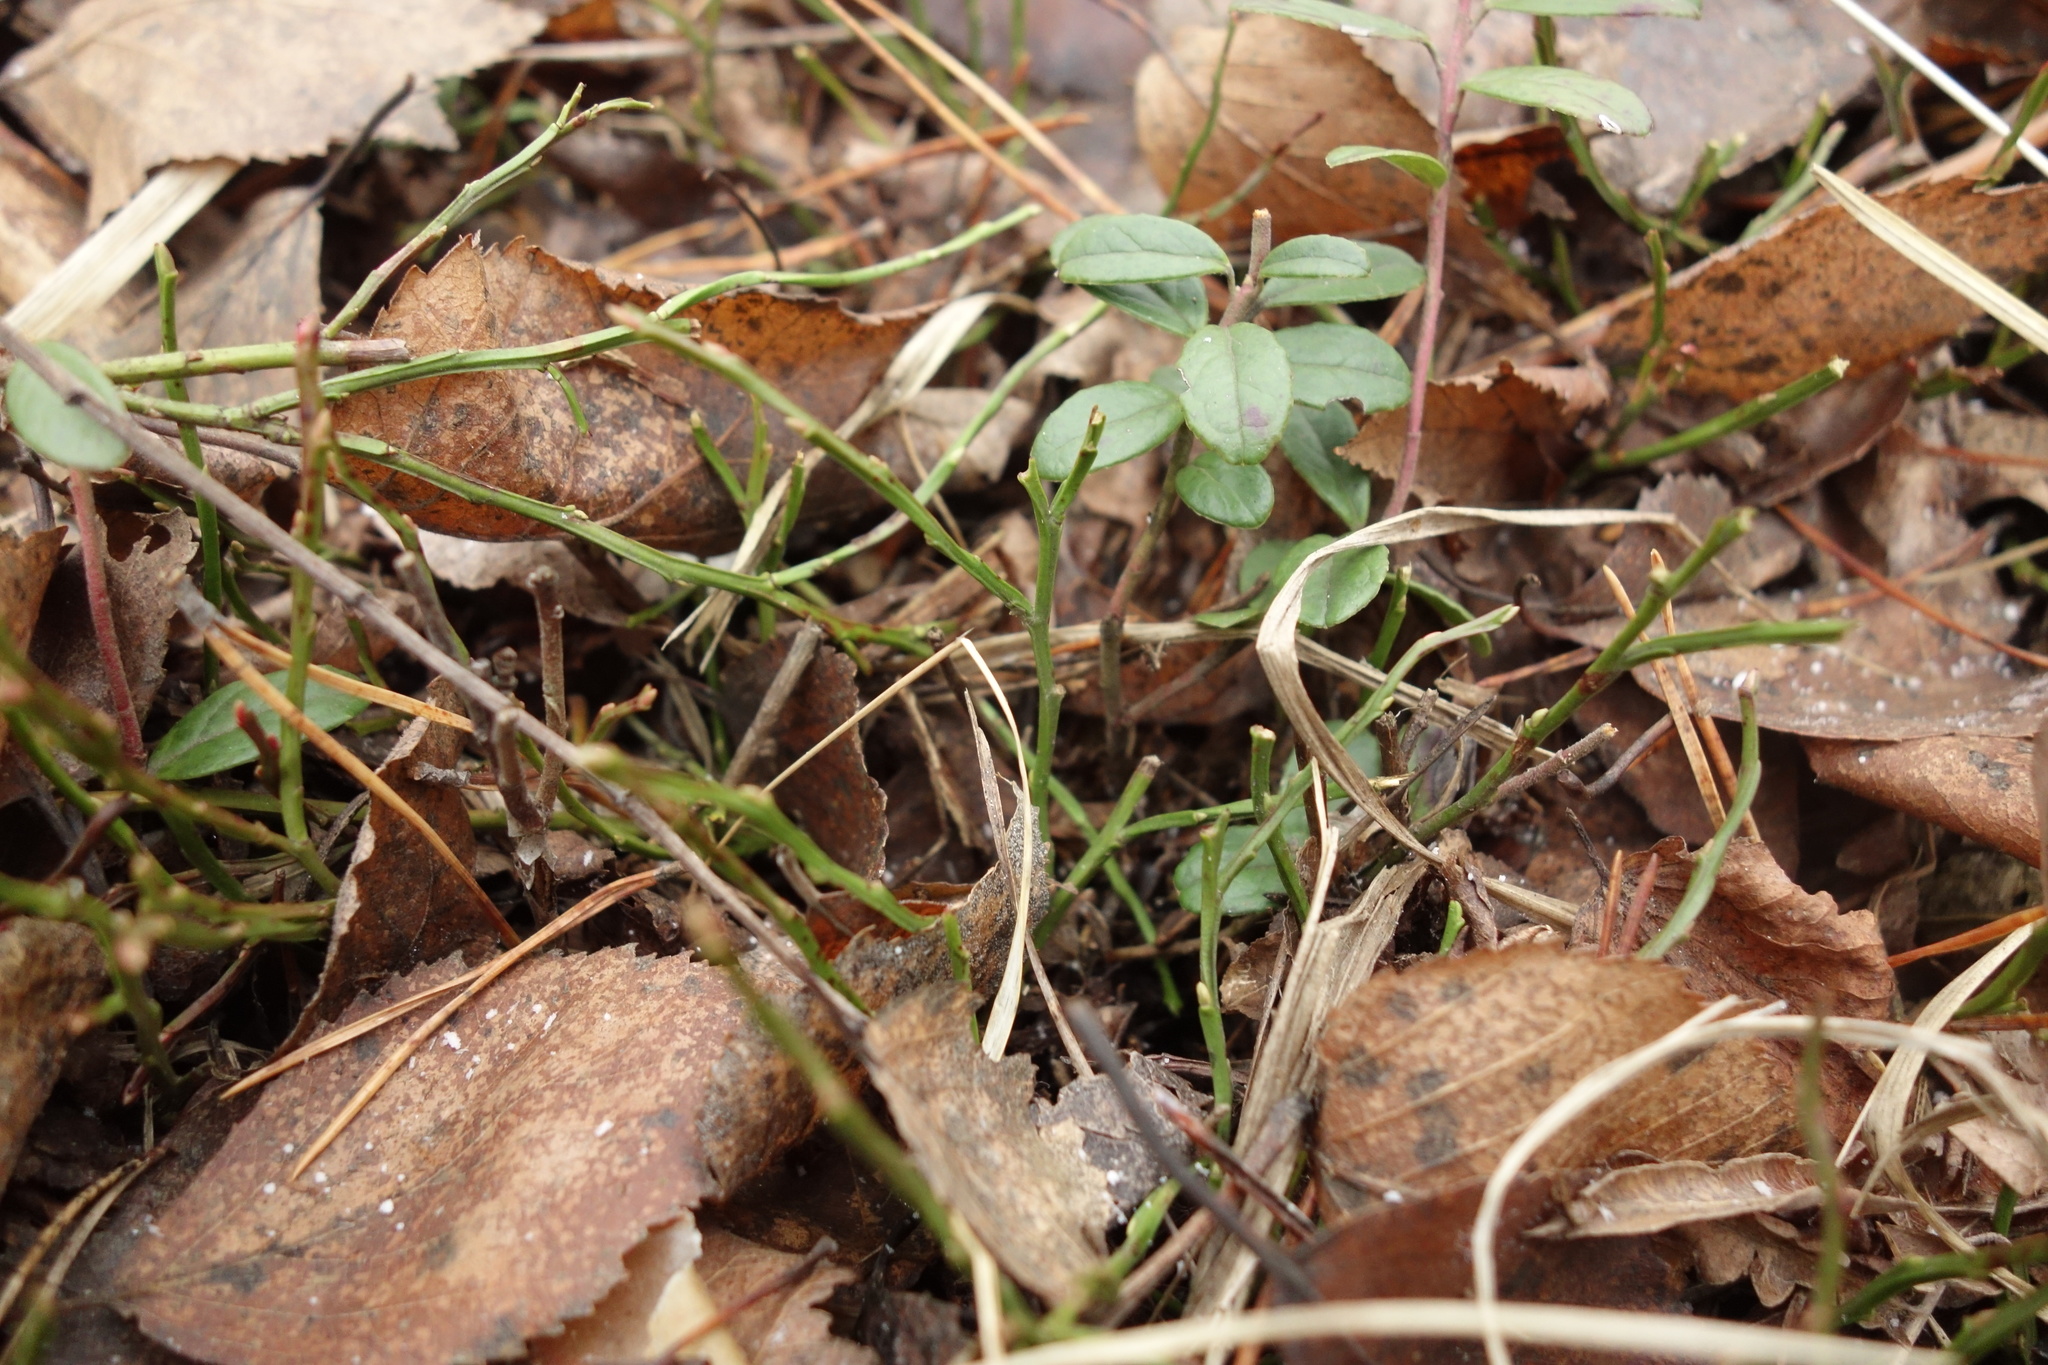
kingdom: Plantae
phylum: Tracheophyta
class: Magnoliopsida
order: Ericales
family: Ericaceae
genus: Vaccinium
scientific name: Vaccinium myrtillus
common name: Bilberry
